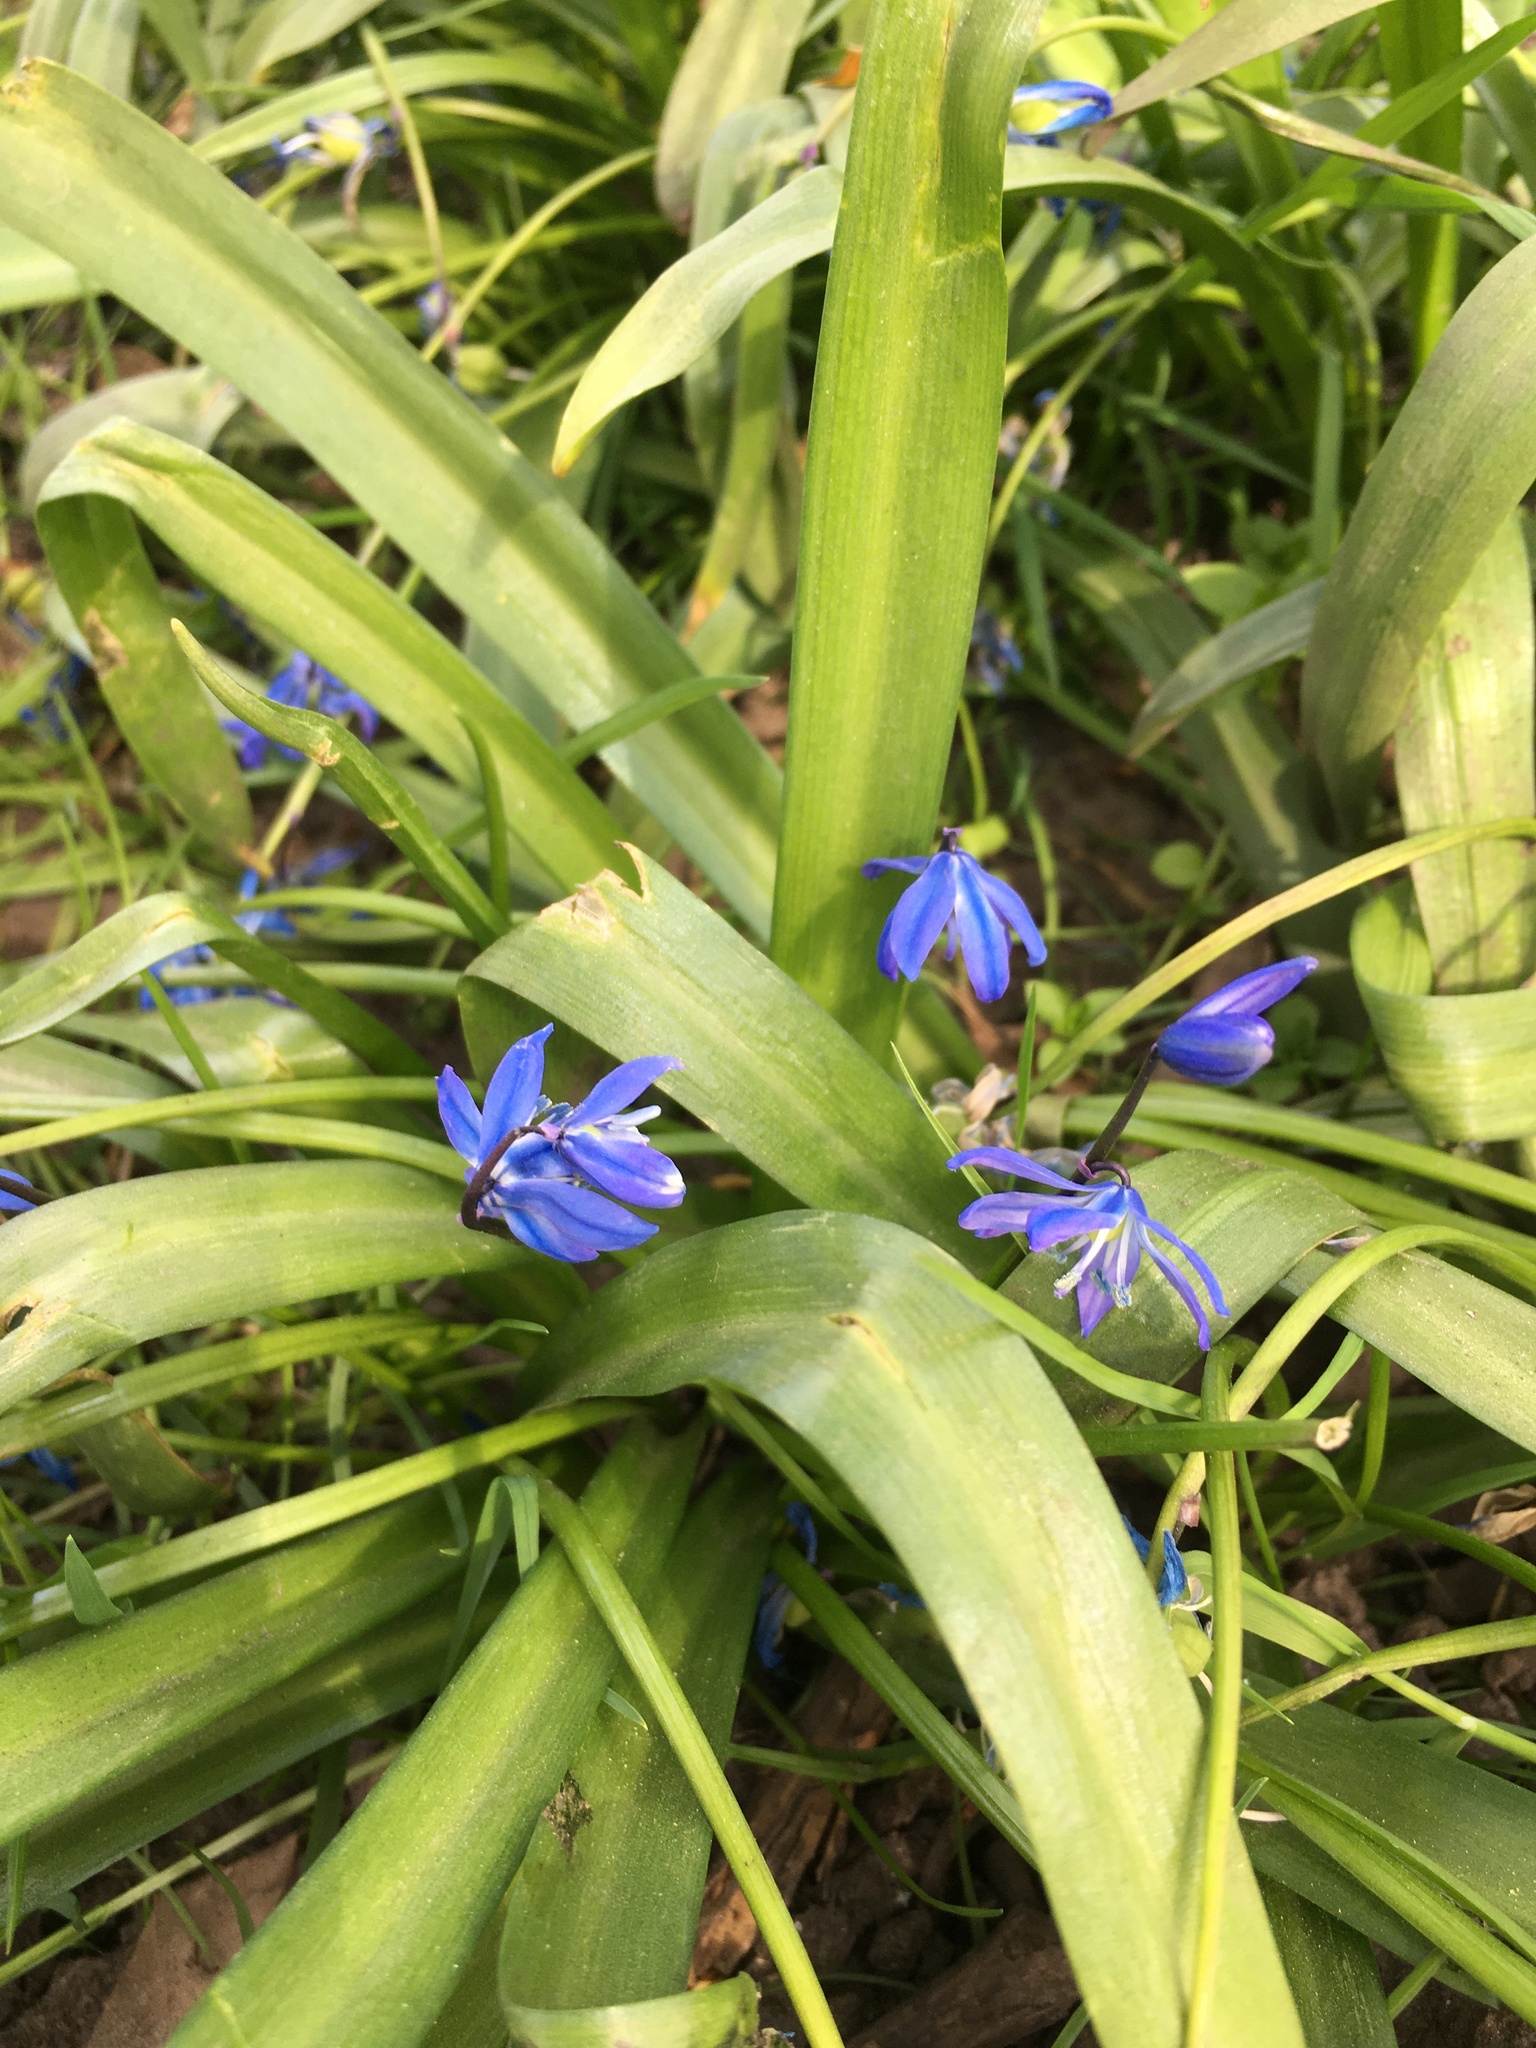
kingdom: Plantae
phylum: Tracheophyta
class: Liliopsida
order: Asparagales
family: Asparagaceae
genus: Scilla
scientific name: Scilla siberica
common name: Siberian squill
